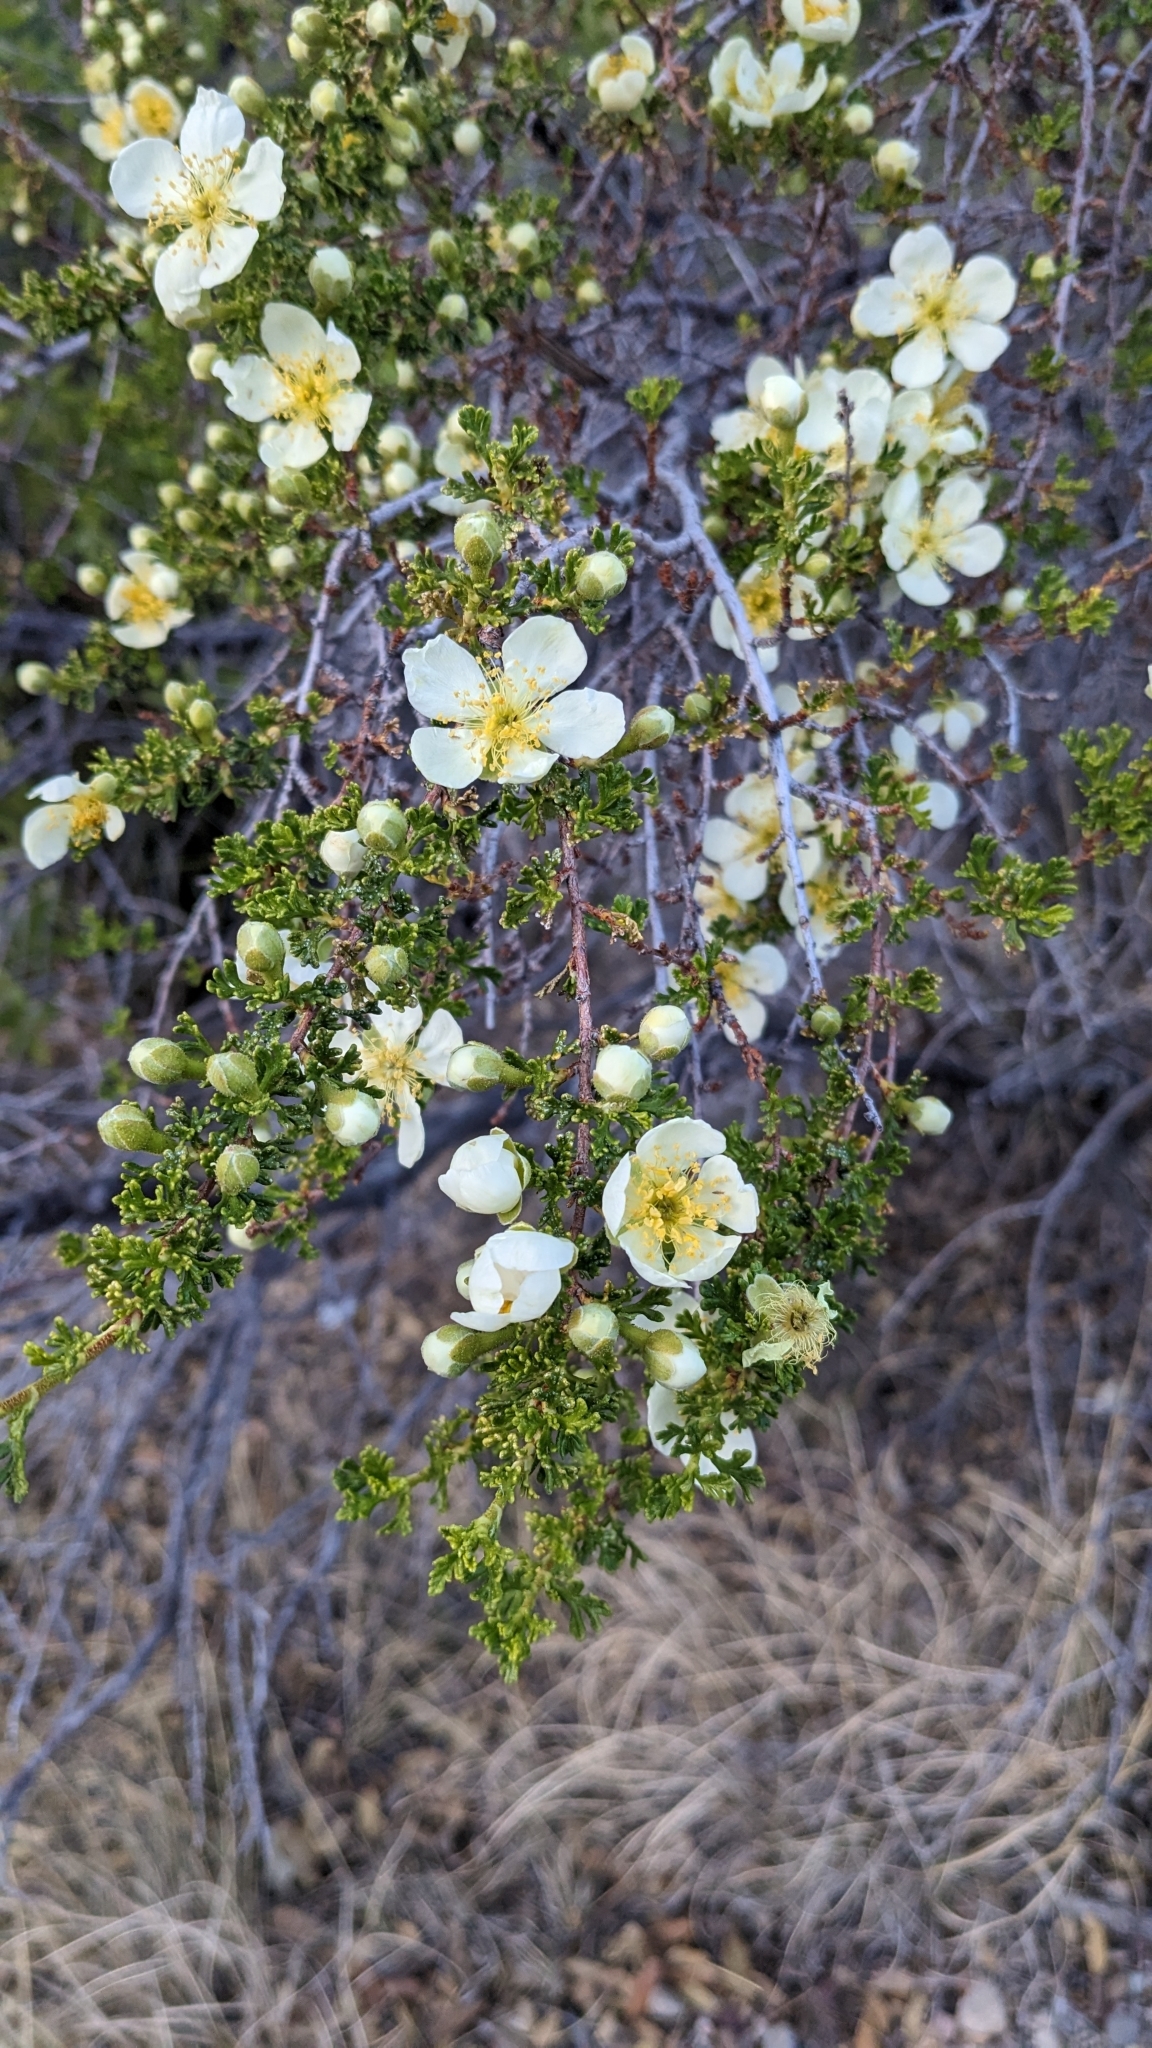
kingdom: Plantae
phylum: Tracheophyta
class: Magnoliopsida
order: Rosales
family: Rosaceae
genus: Purshia
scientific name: Purshia stansburiana
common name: Stansbury's cliffrose
